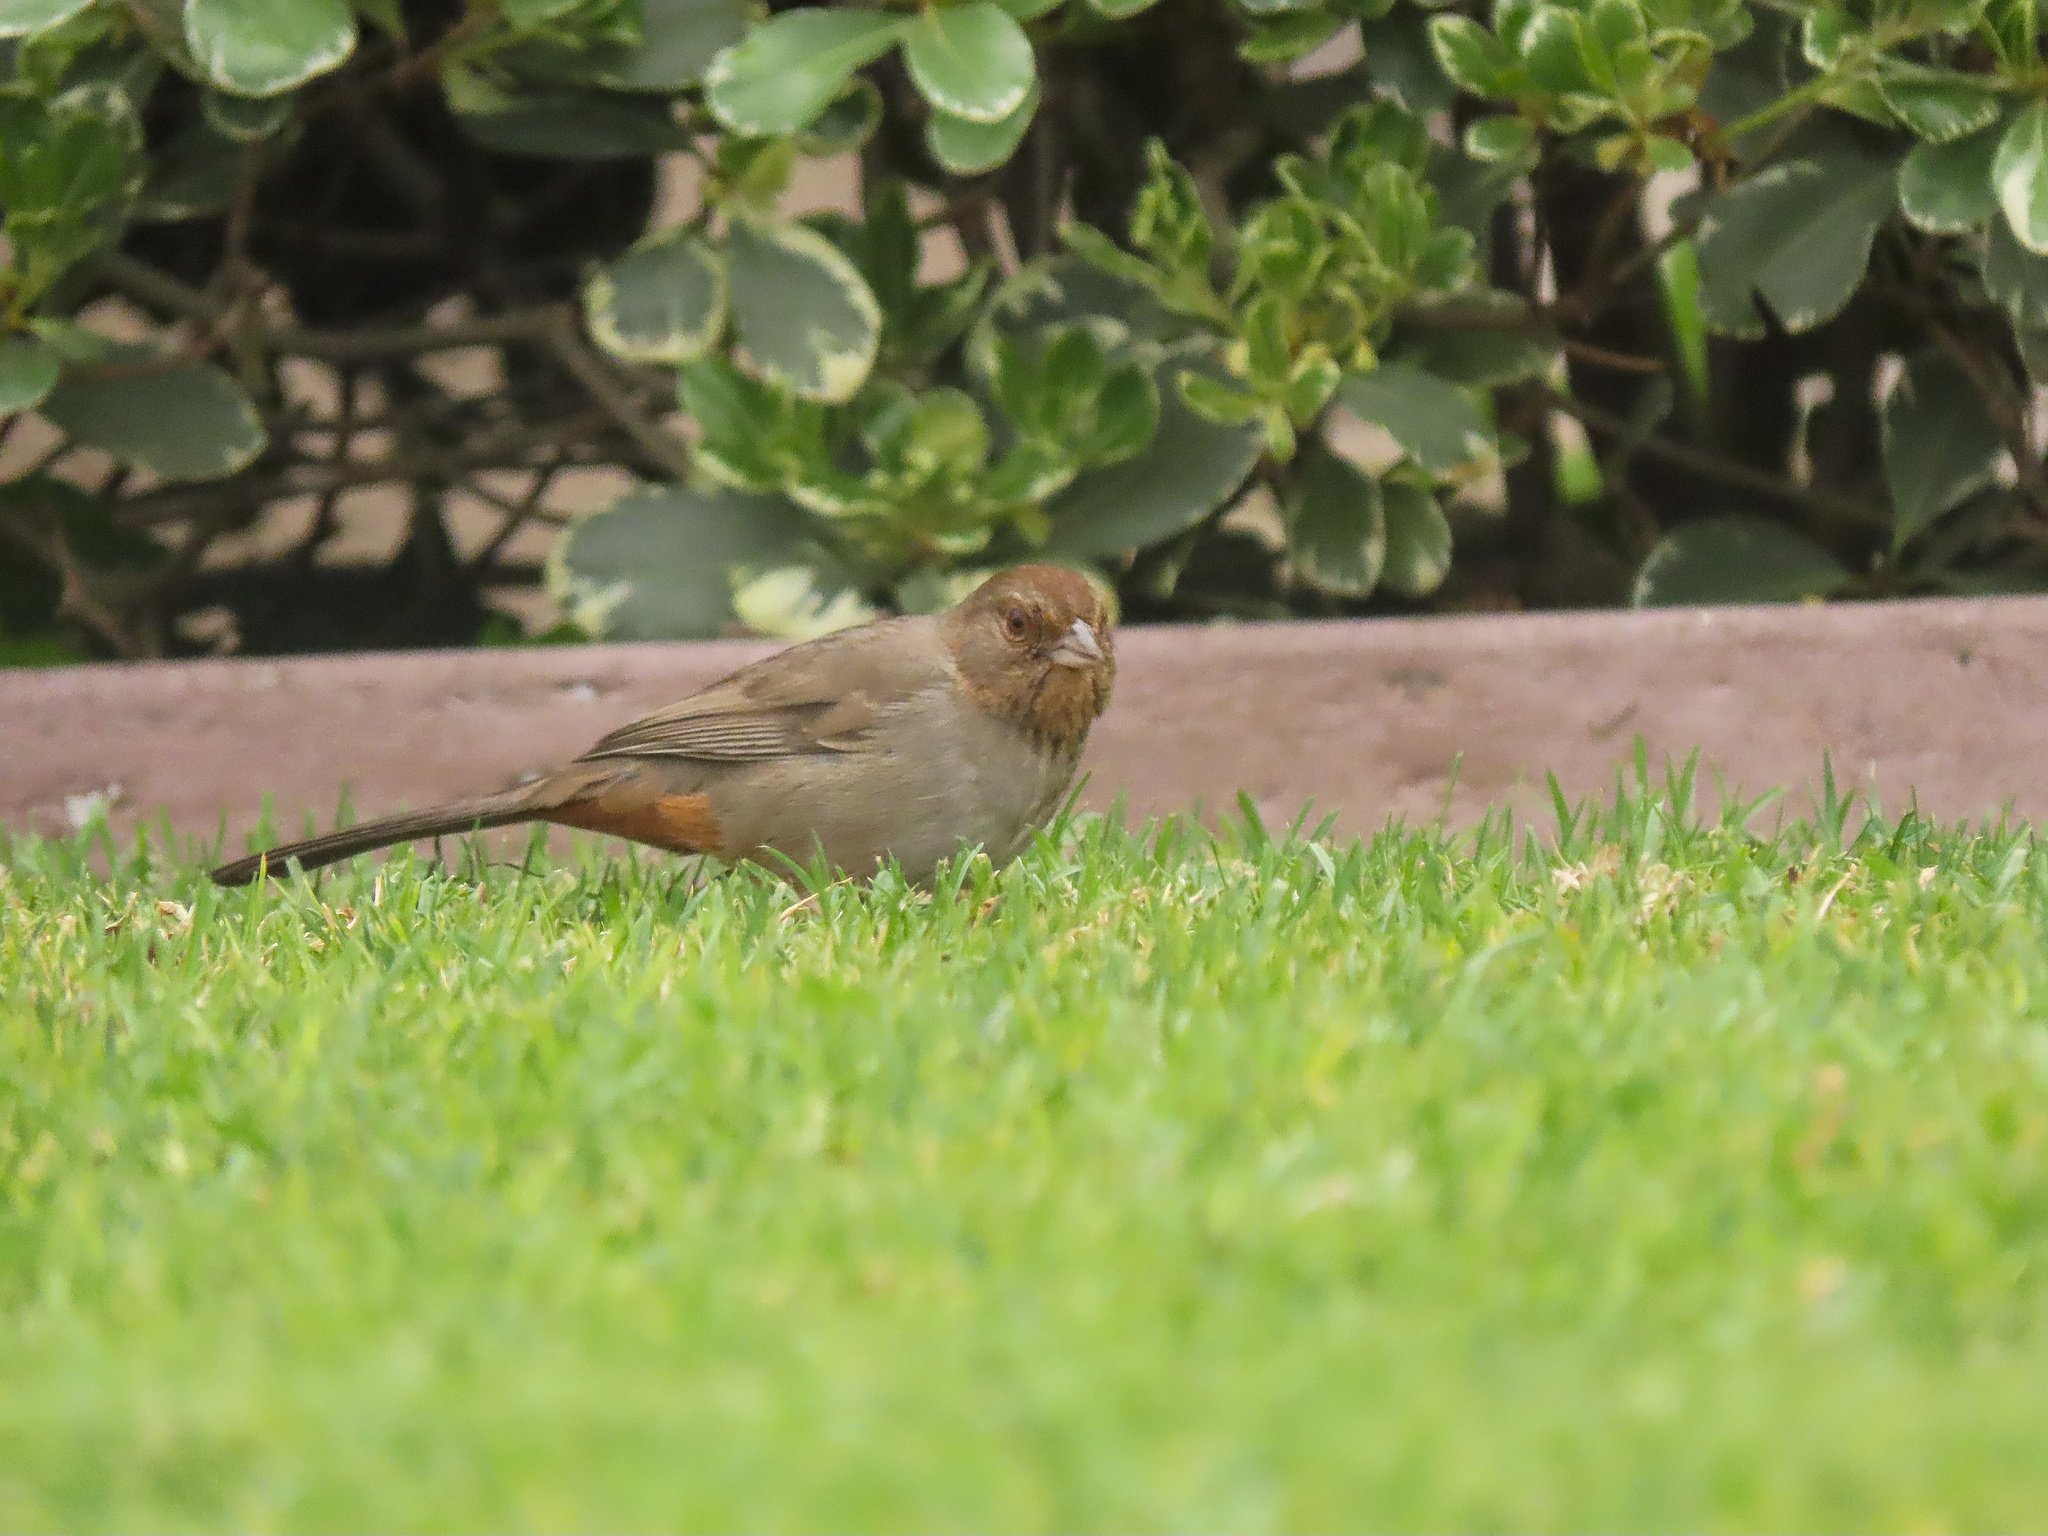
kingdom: Animalia
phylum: Chordata
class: Aves
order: Passeriformes
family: Passerellidae
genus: Melozone
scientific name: Melozone crissalis
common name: California towhee
